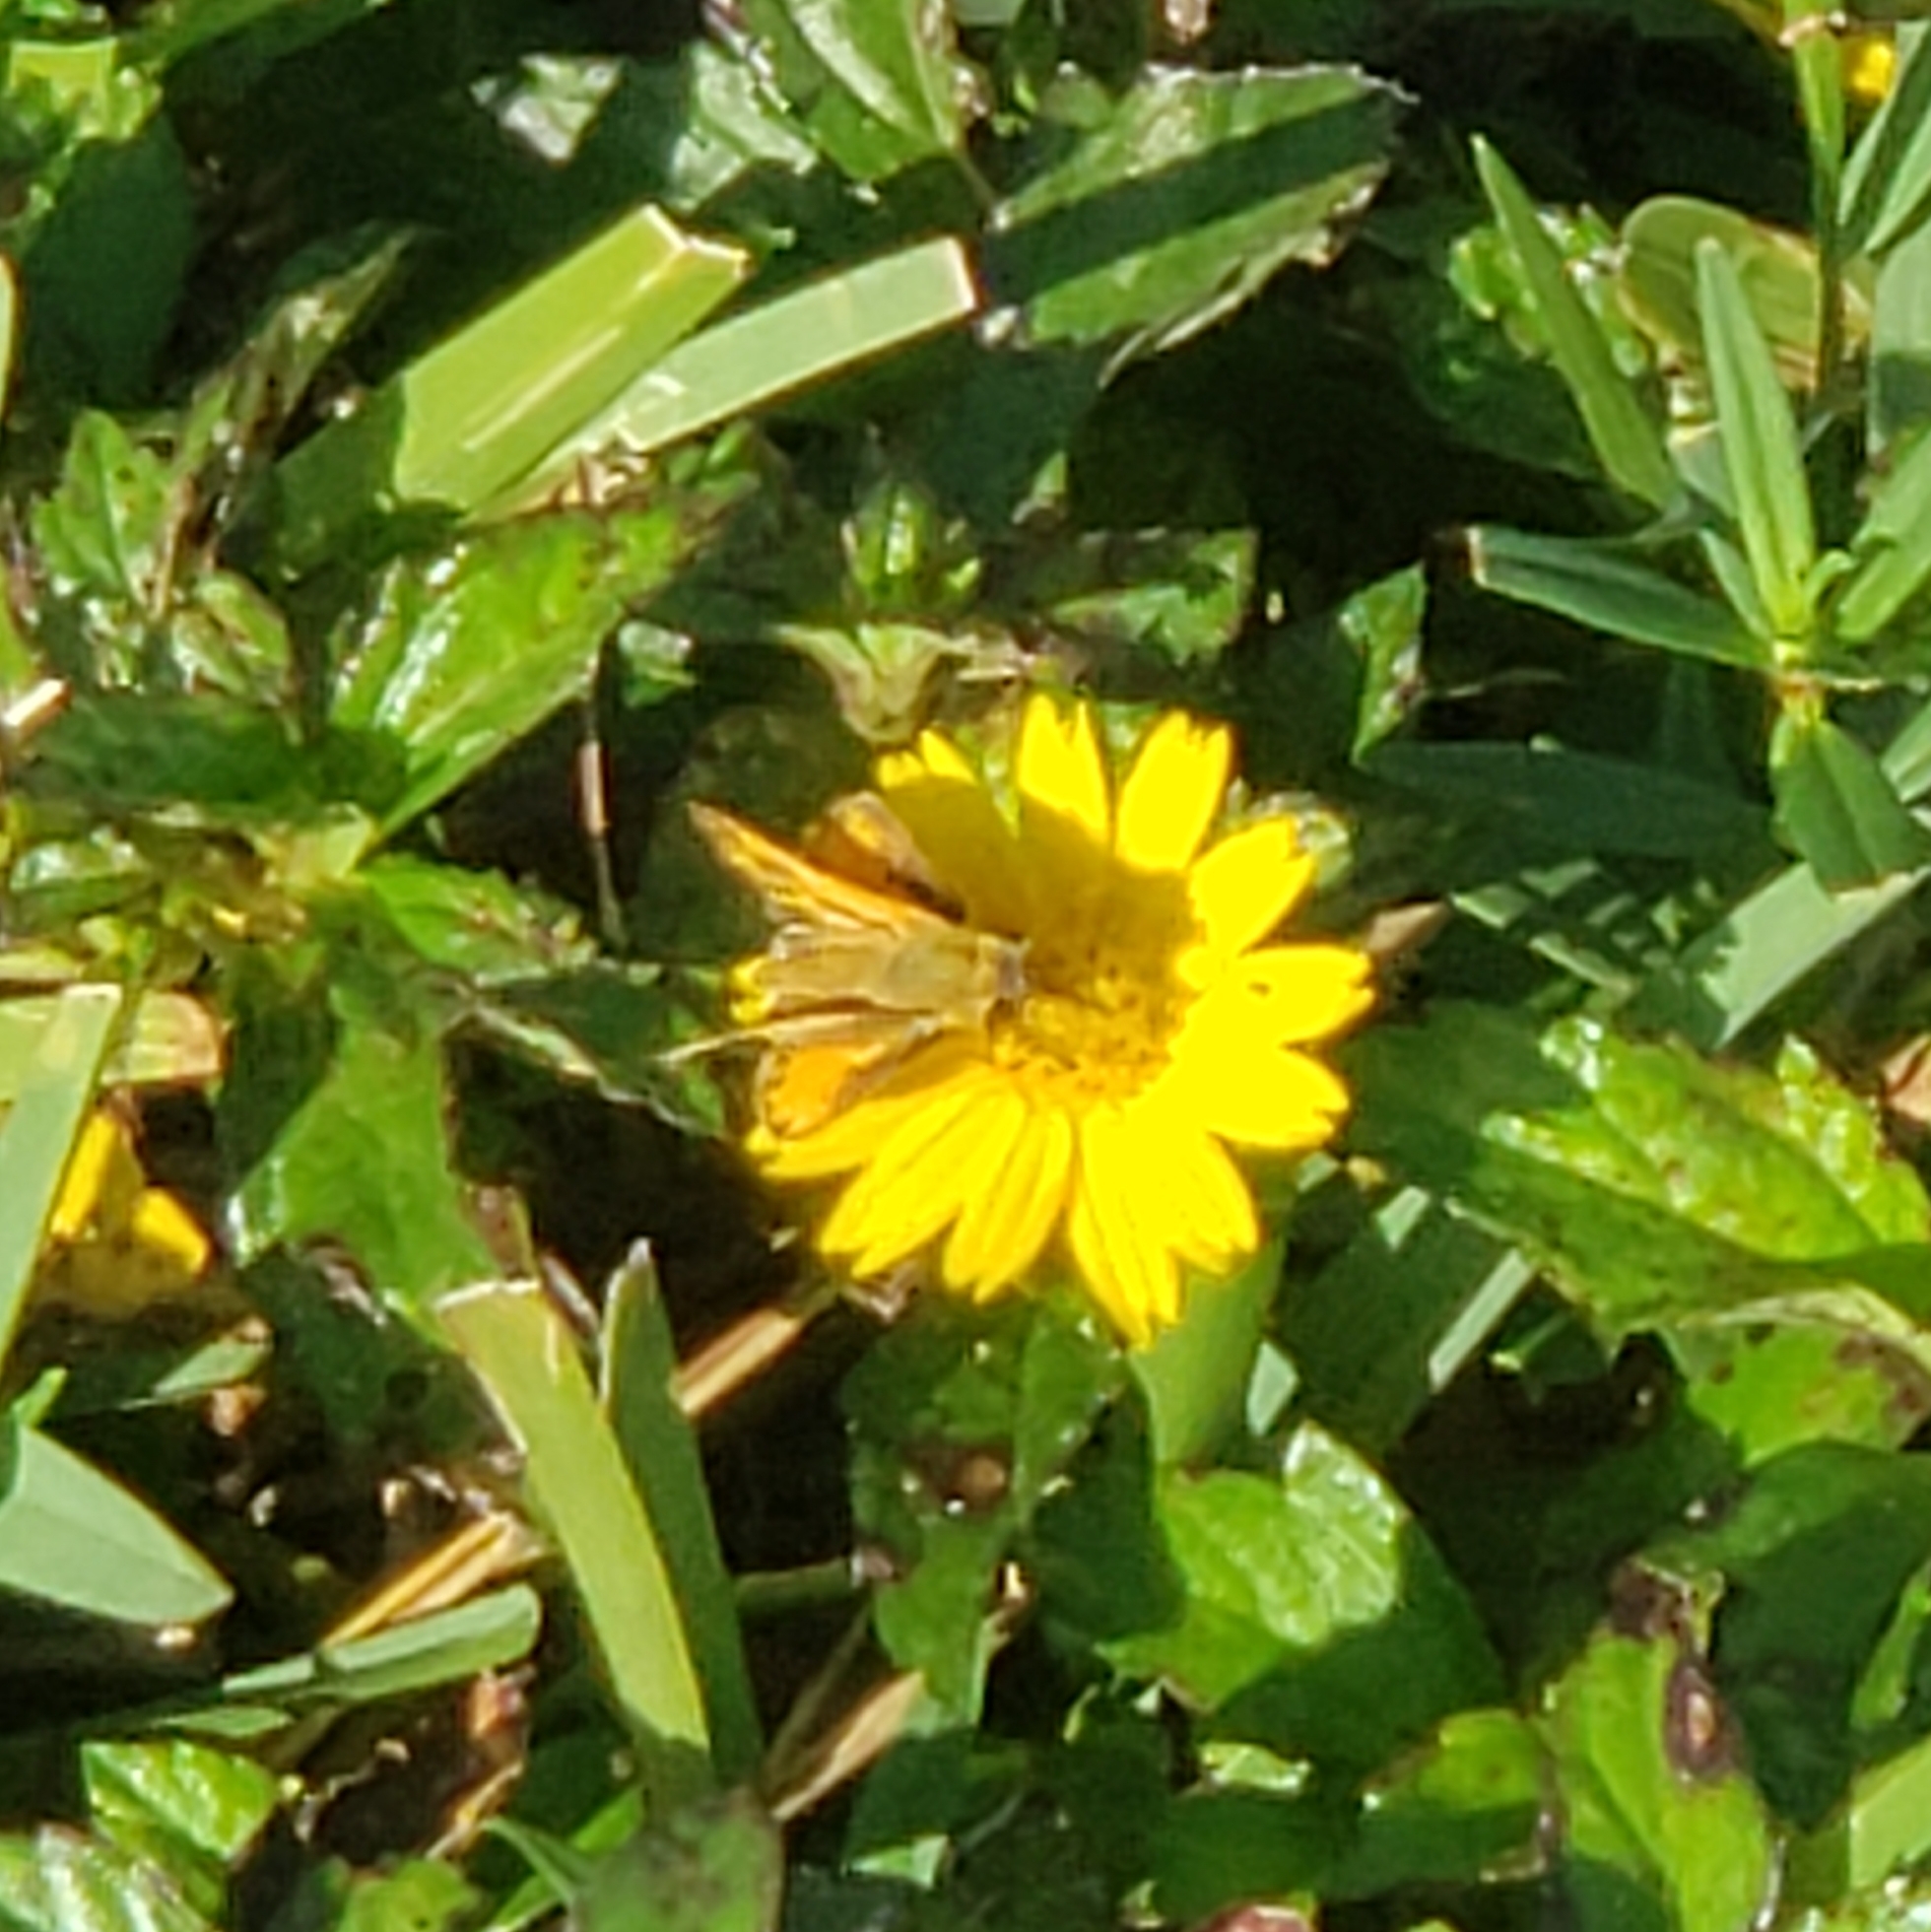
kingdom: Animalia
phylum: Arthropoda
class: Insecta
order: Lepidoptera
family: Hesperiidae
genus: Hylephila
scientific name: Hylephila phyleus
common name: Fiery skipper
